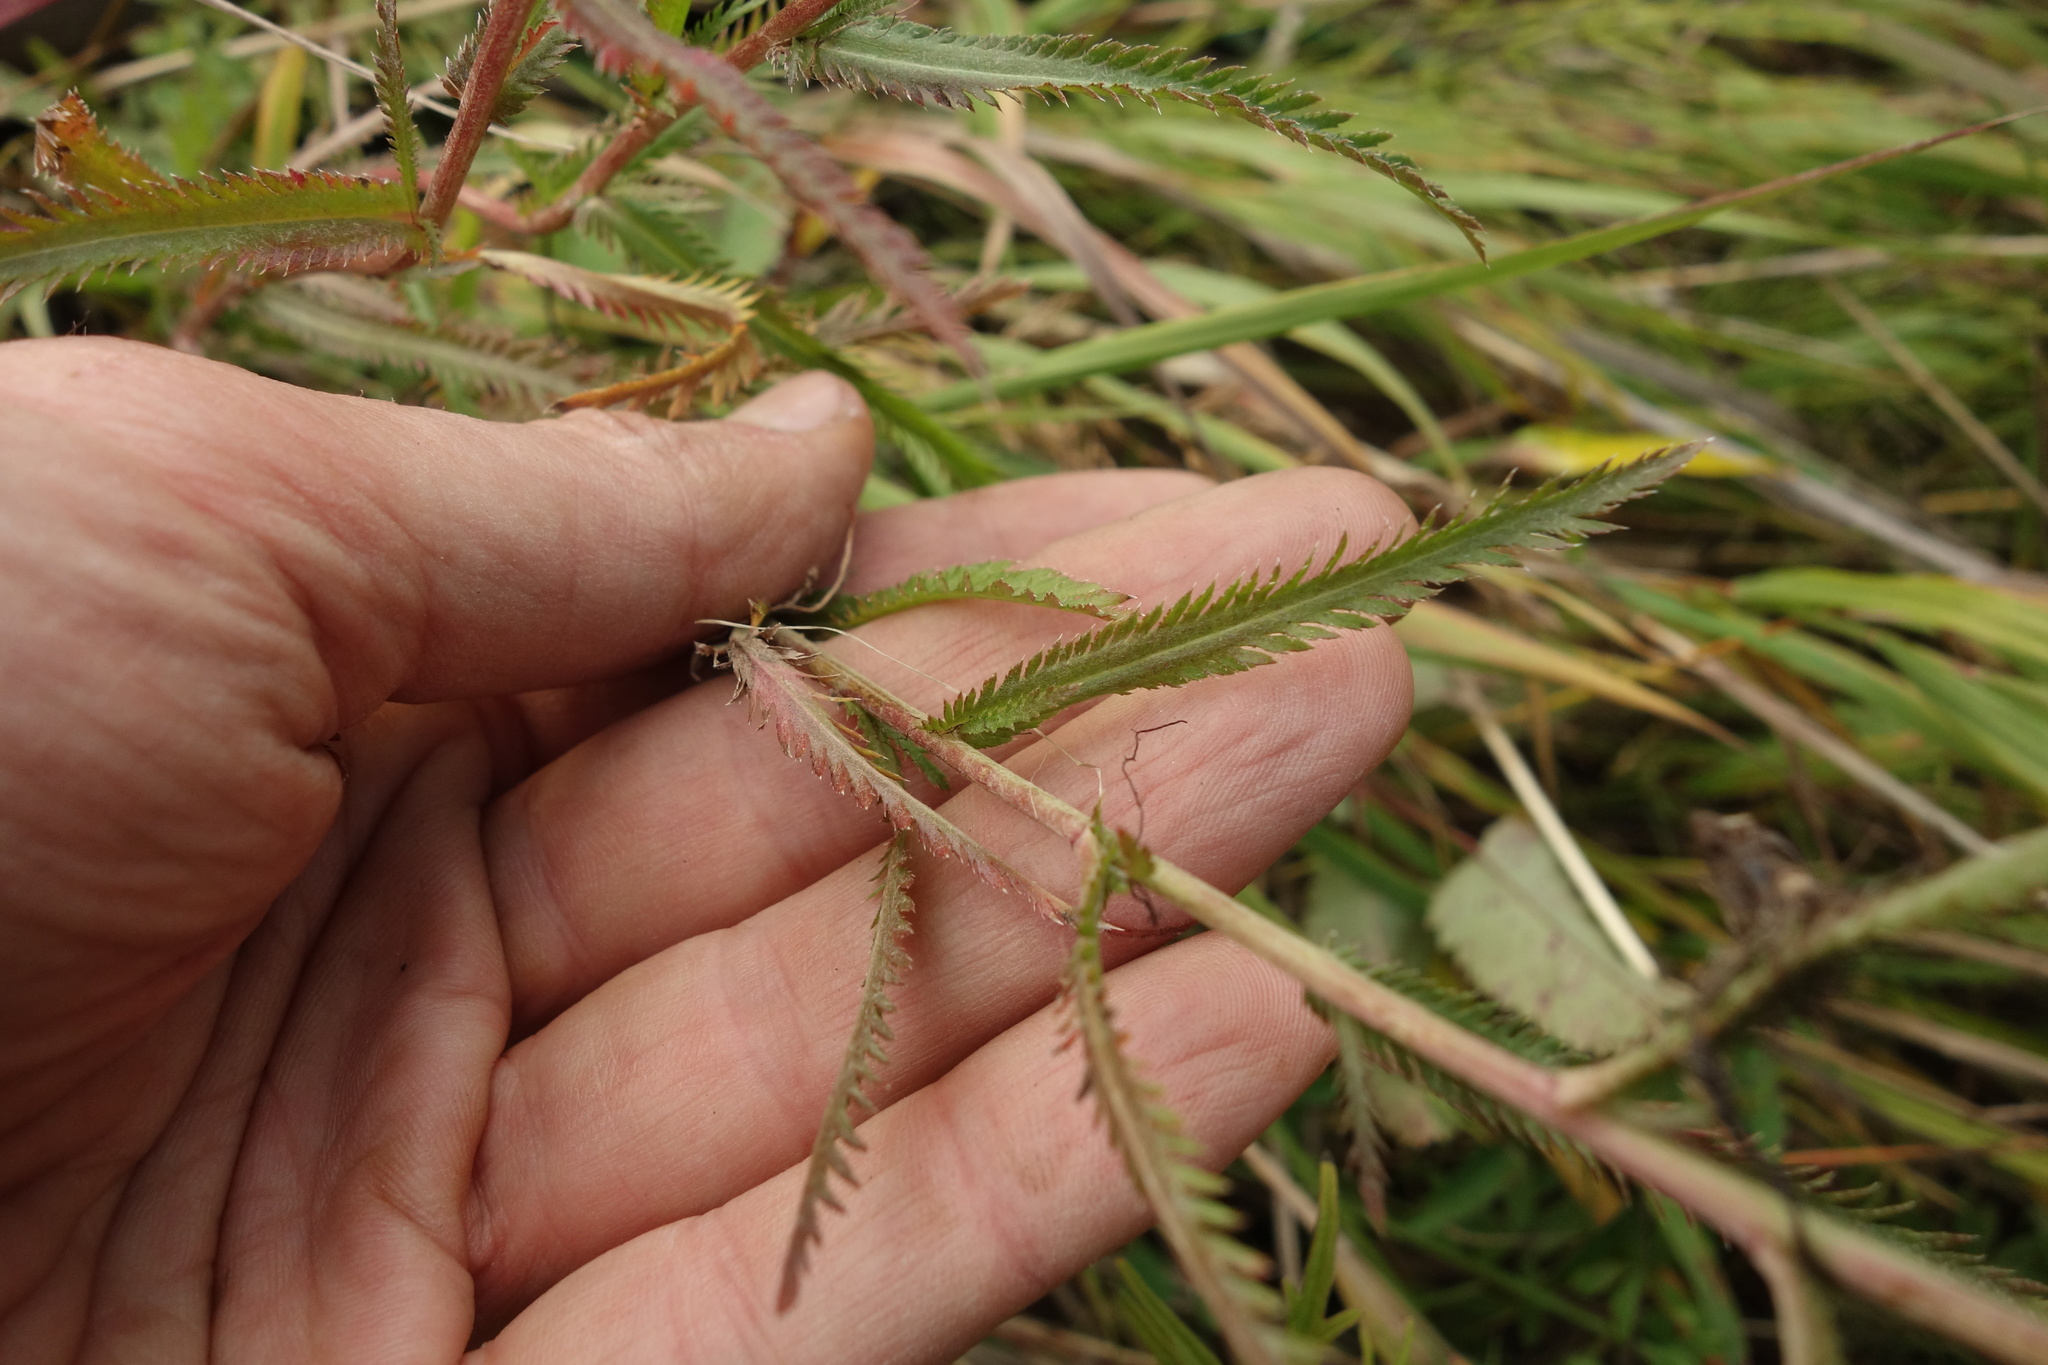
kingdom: Plantae
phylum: Tracheophyta
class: Magnoliopsida
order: Asterales
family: Asteraceae
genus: Achillea
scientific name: Achillea alpina
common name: Siberian yarrow
